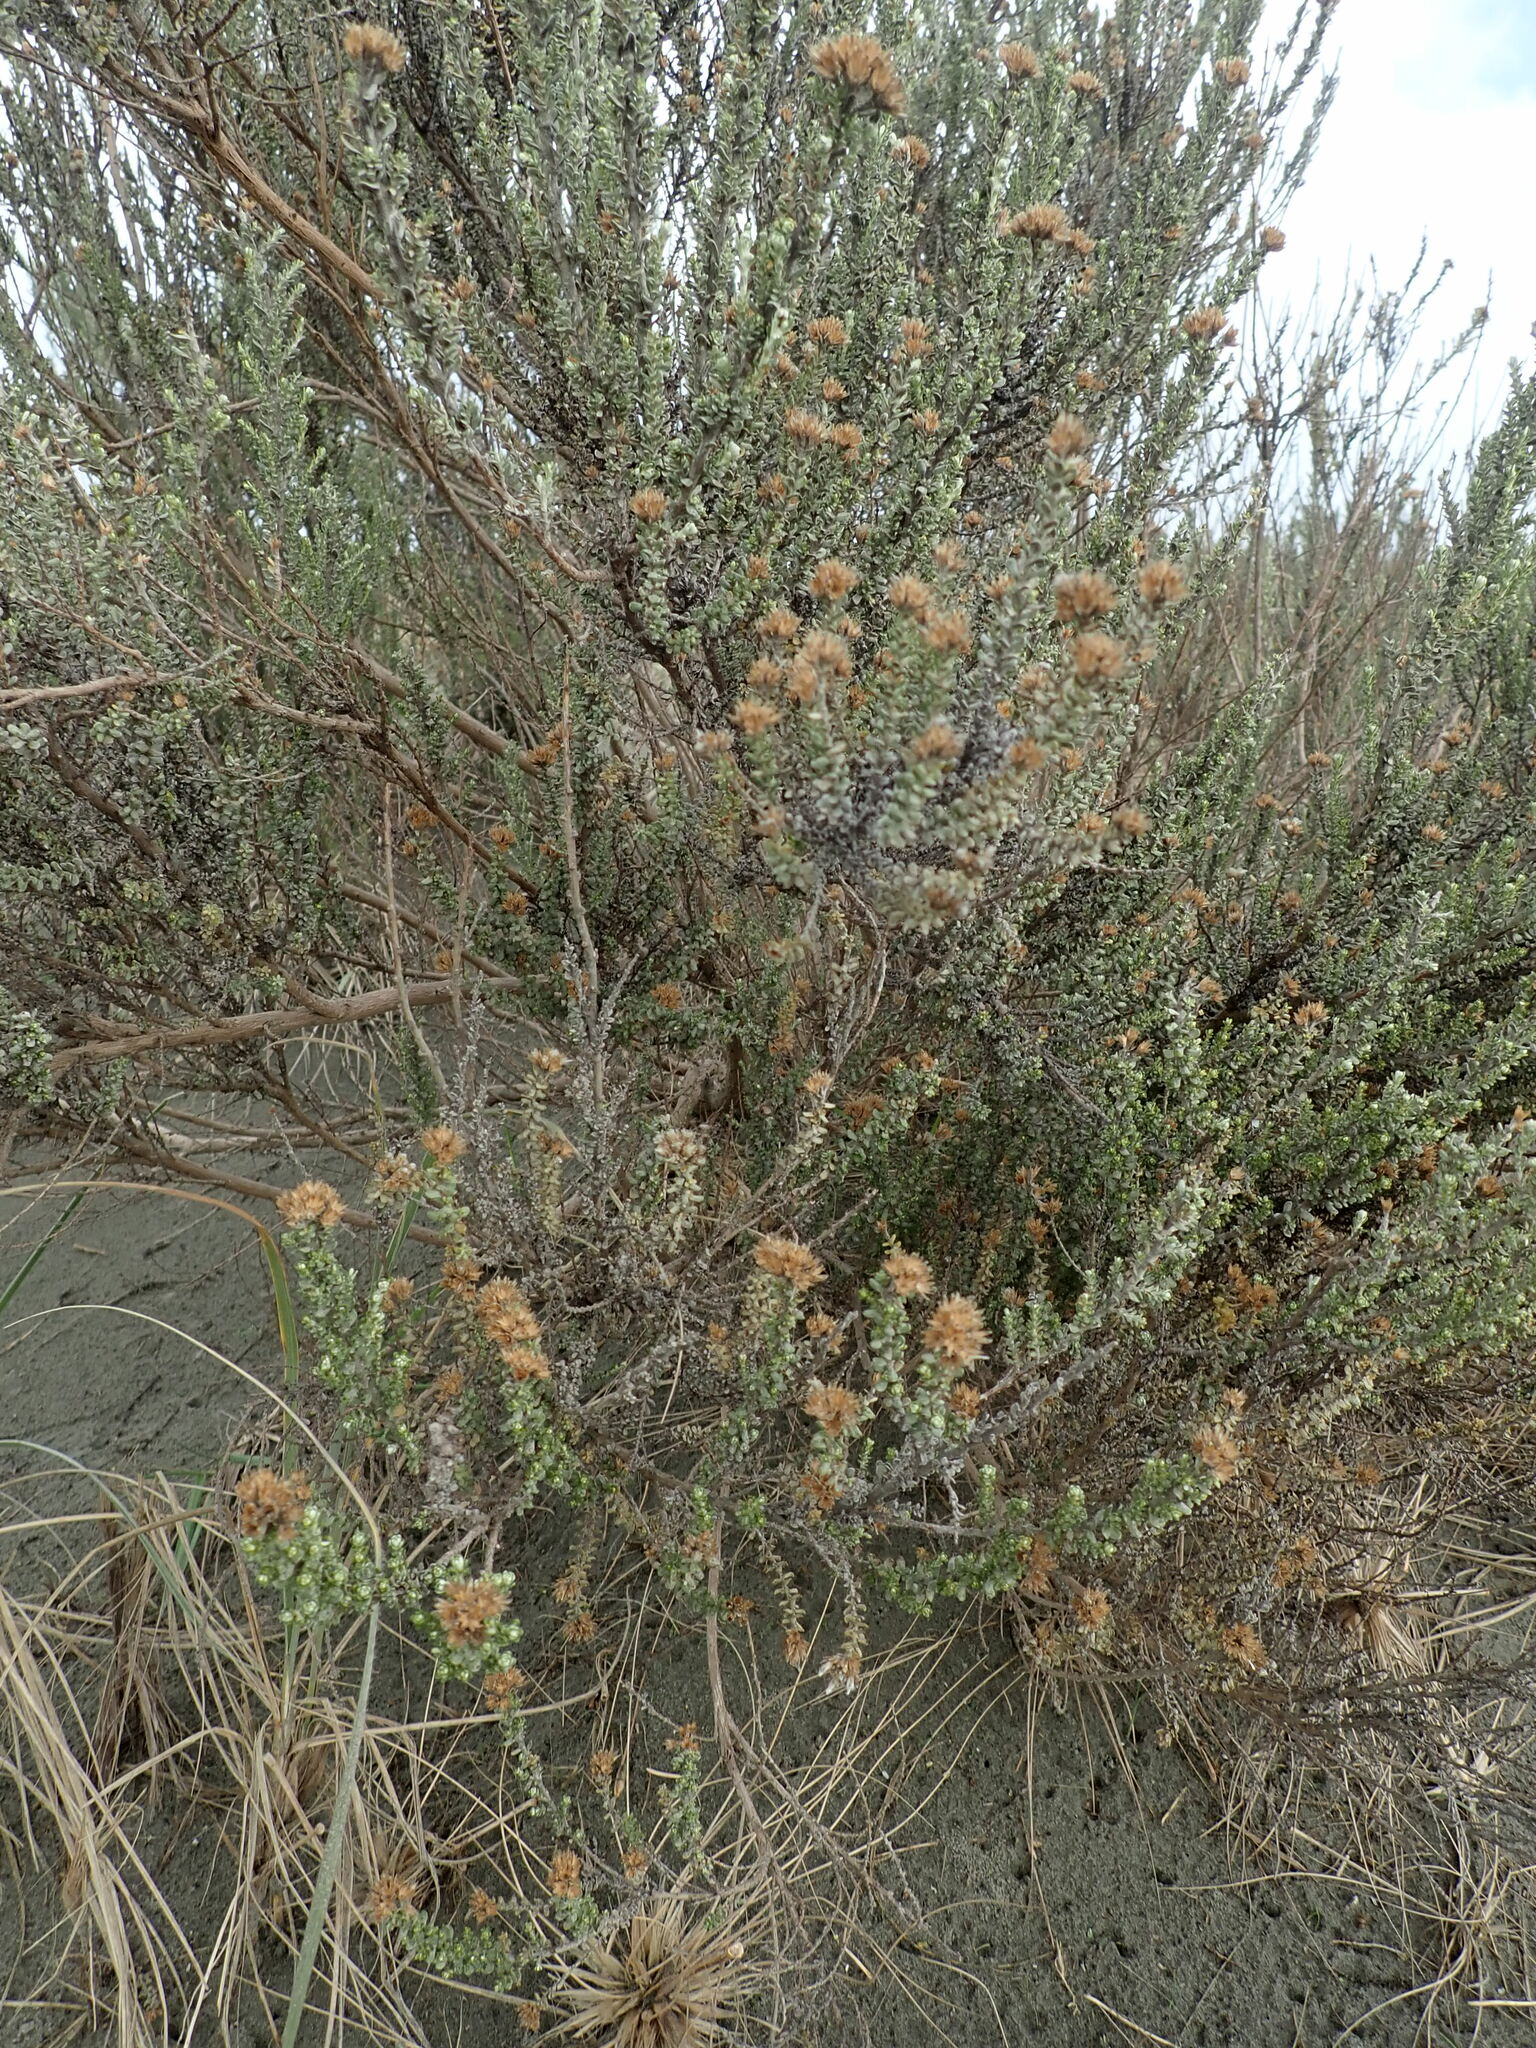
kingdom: Plantae
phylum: Tracheophyta
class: Magnoliopsida
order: Asterales
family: Asteraceae
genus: Ozothamnus
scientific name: Ozothamnus leptophyllus
